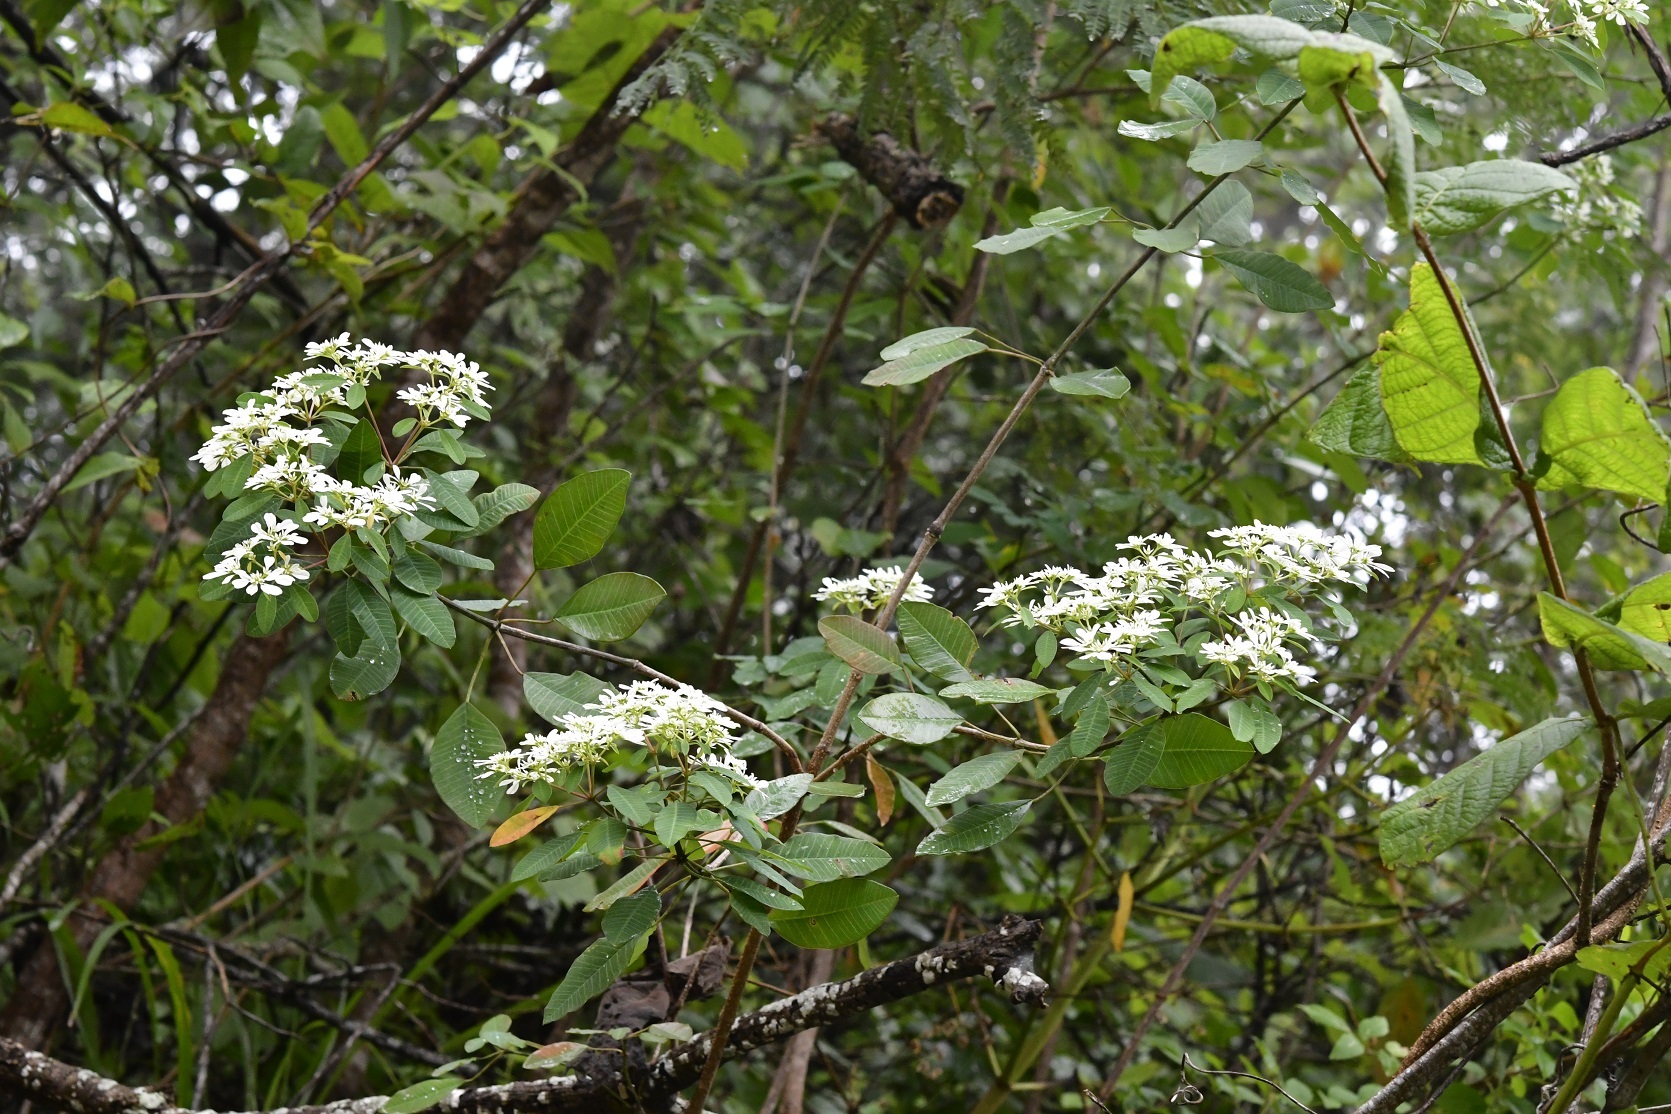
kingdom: Plantae
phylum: Tracheophyta
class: Magnoliopsida
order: Malpighiales
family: Euphorbiaceae
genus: Euphorbia
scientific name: Euphorbia leucocephala
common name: Pascuita
